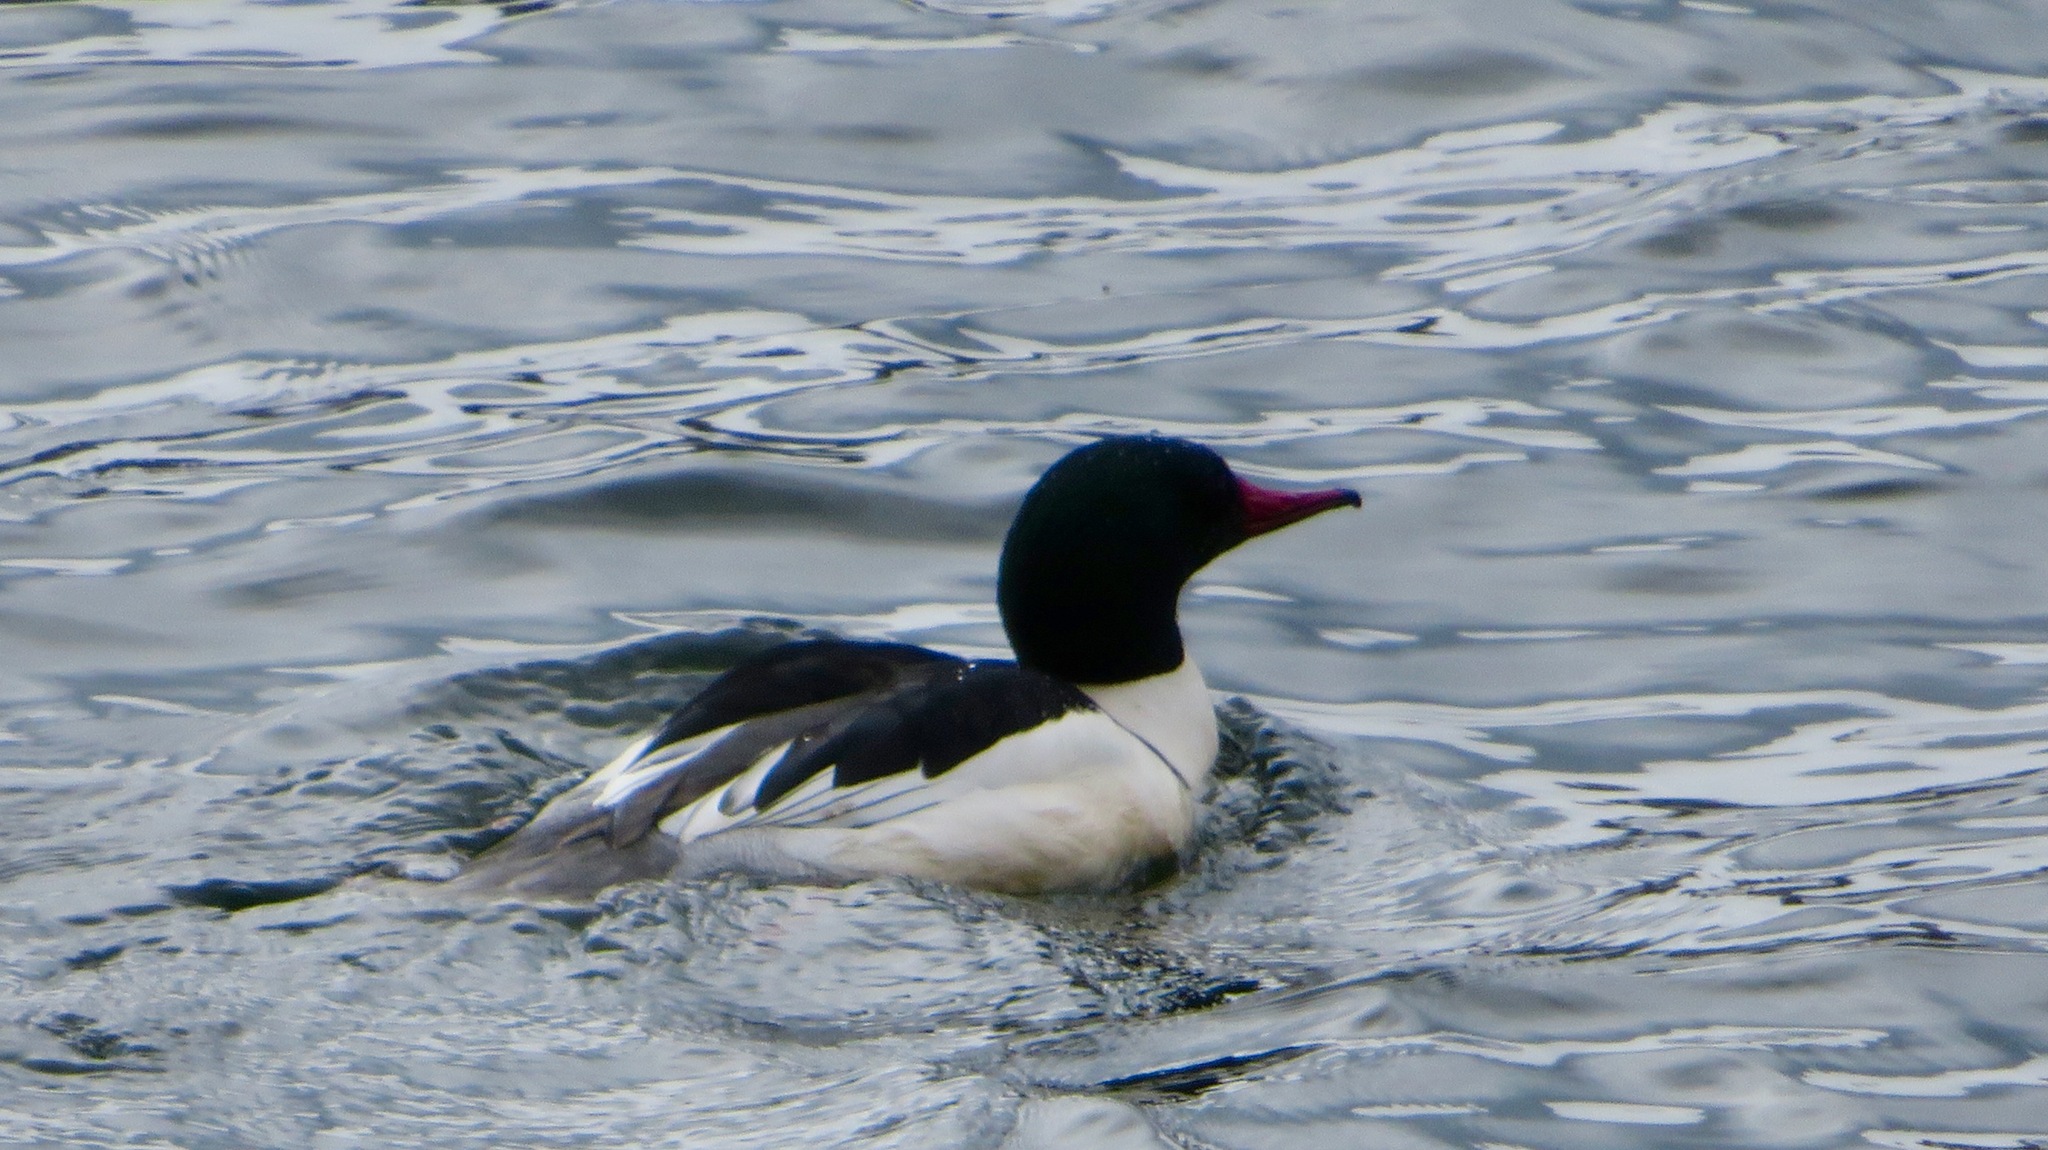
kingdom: Animalia
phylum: Chordata
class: Aves
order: Anseriformes
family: Anatidae
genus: Mergus
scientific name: Mergus merganser
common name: Common merganser
